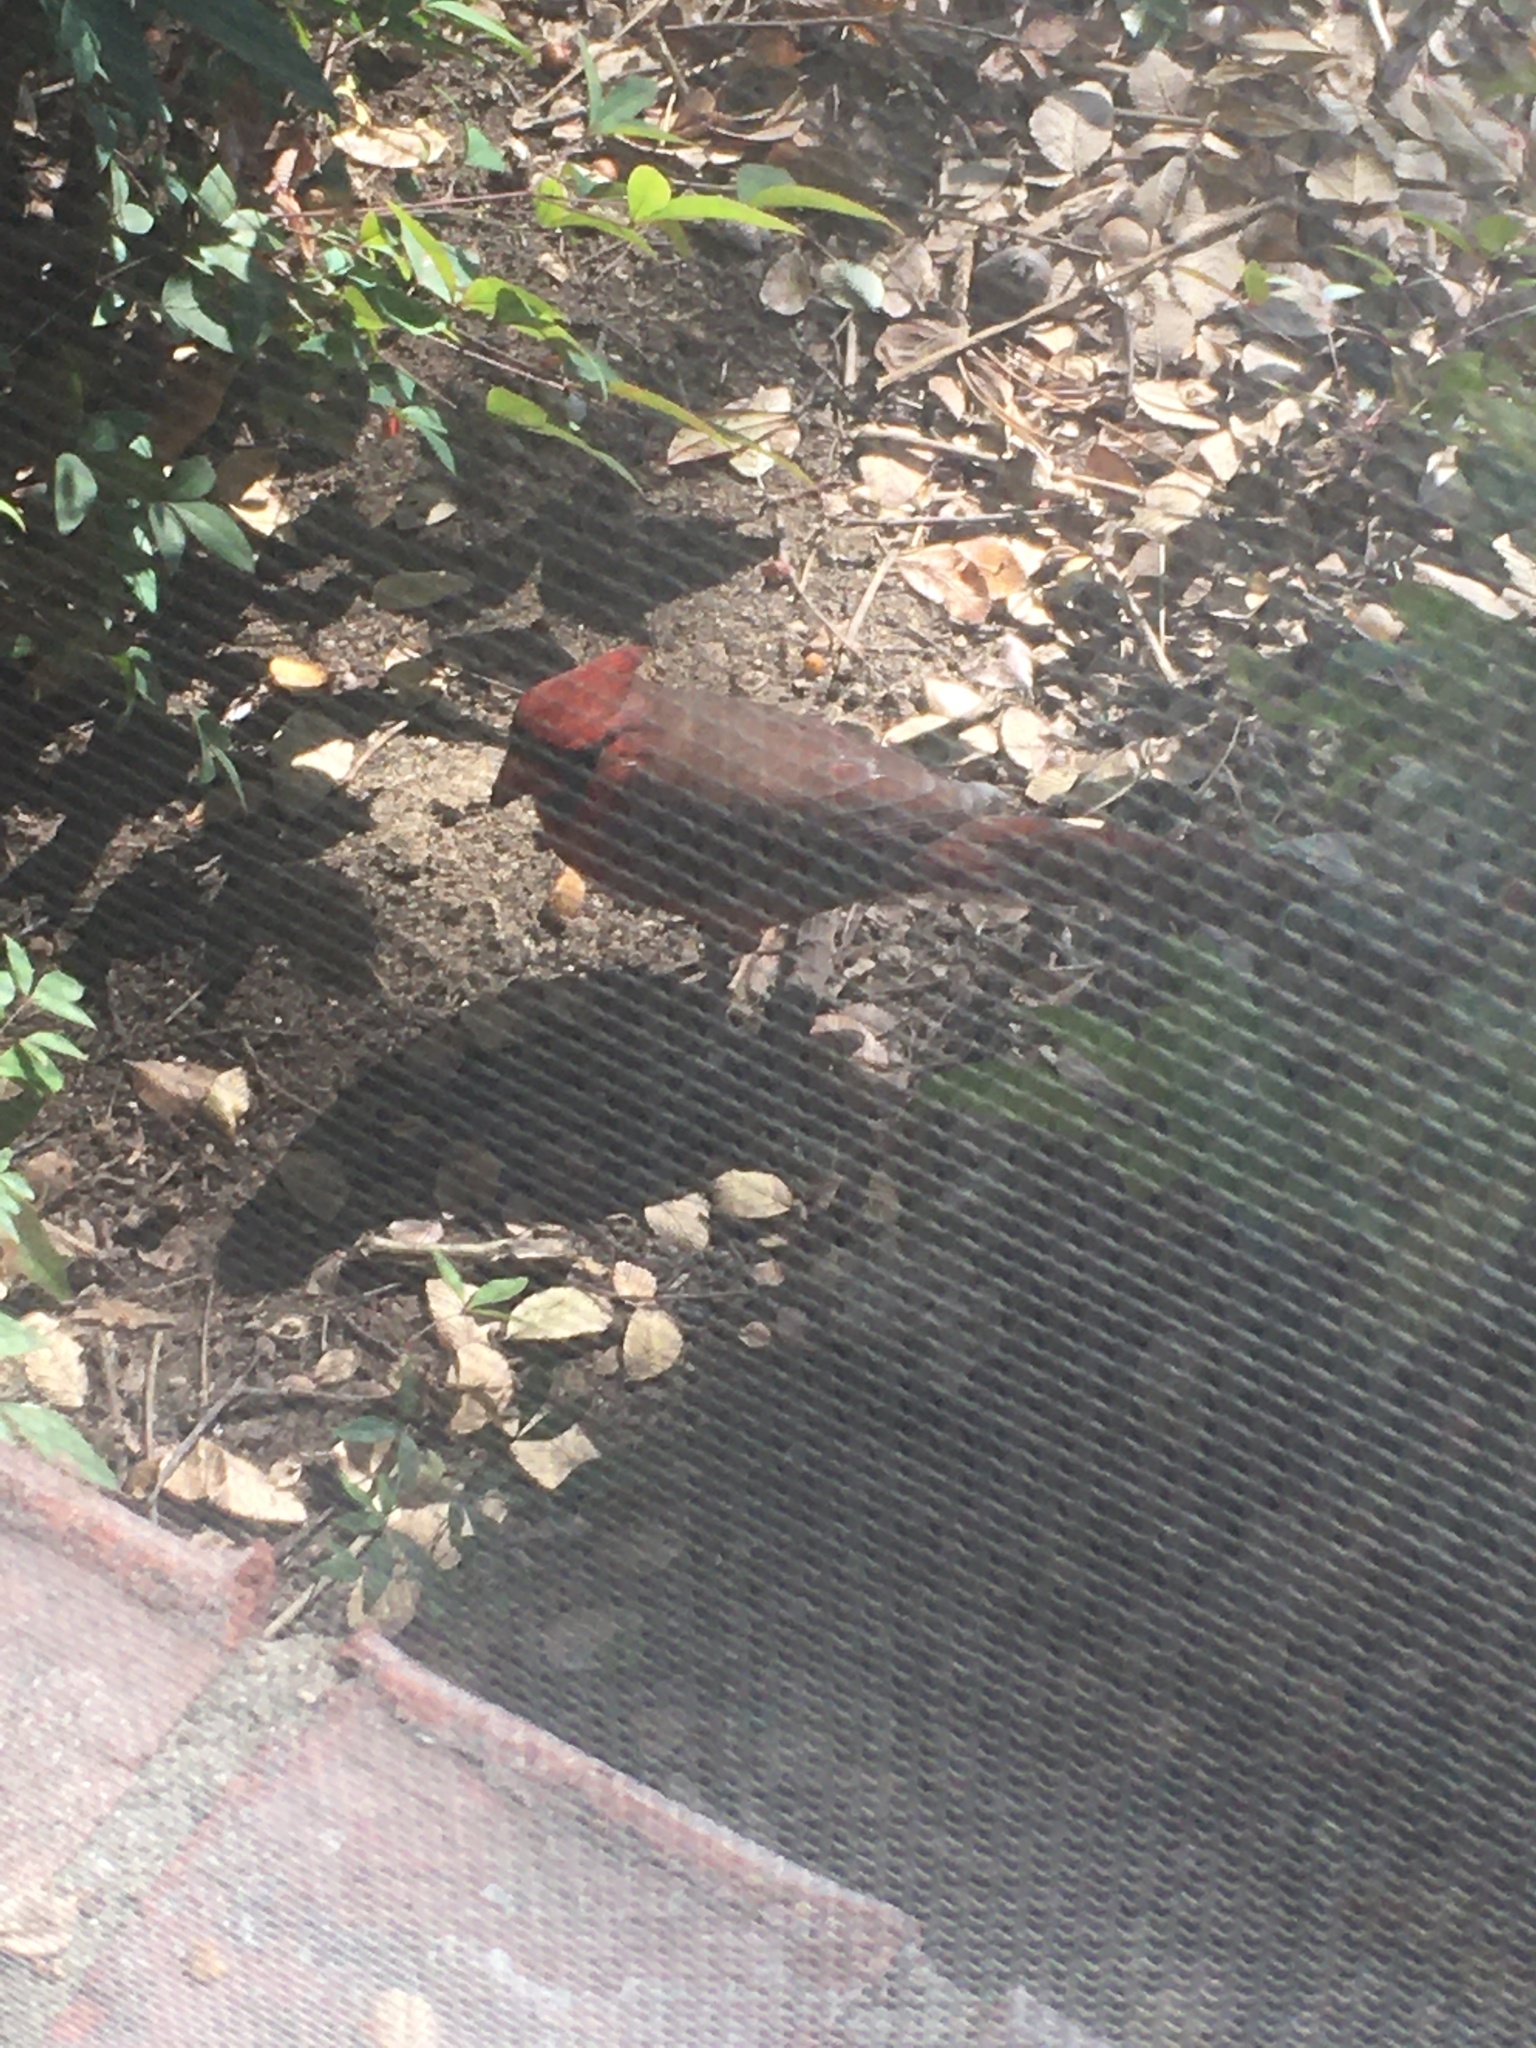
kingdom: Animalia
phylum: Chordata
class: Aves
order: Passeriformes
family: Cardinalidae
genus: Cardinalis
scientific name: Cardinalis cardinalis
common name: Northern cardinal
